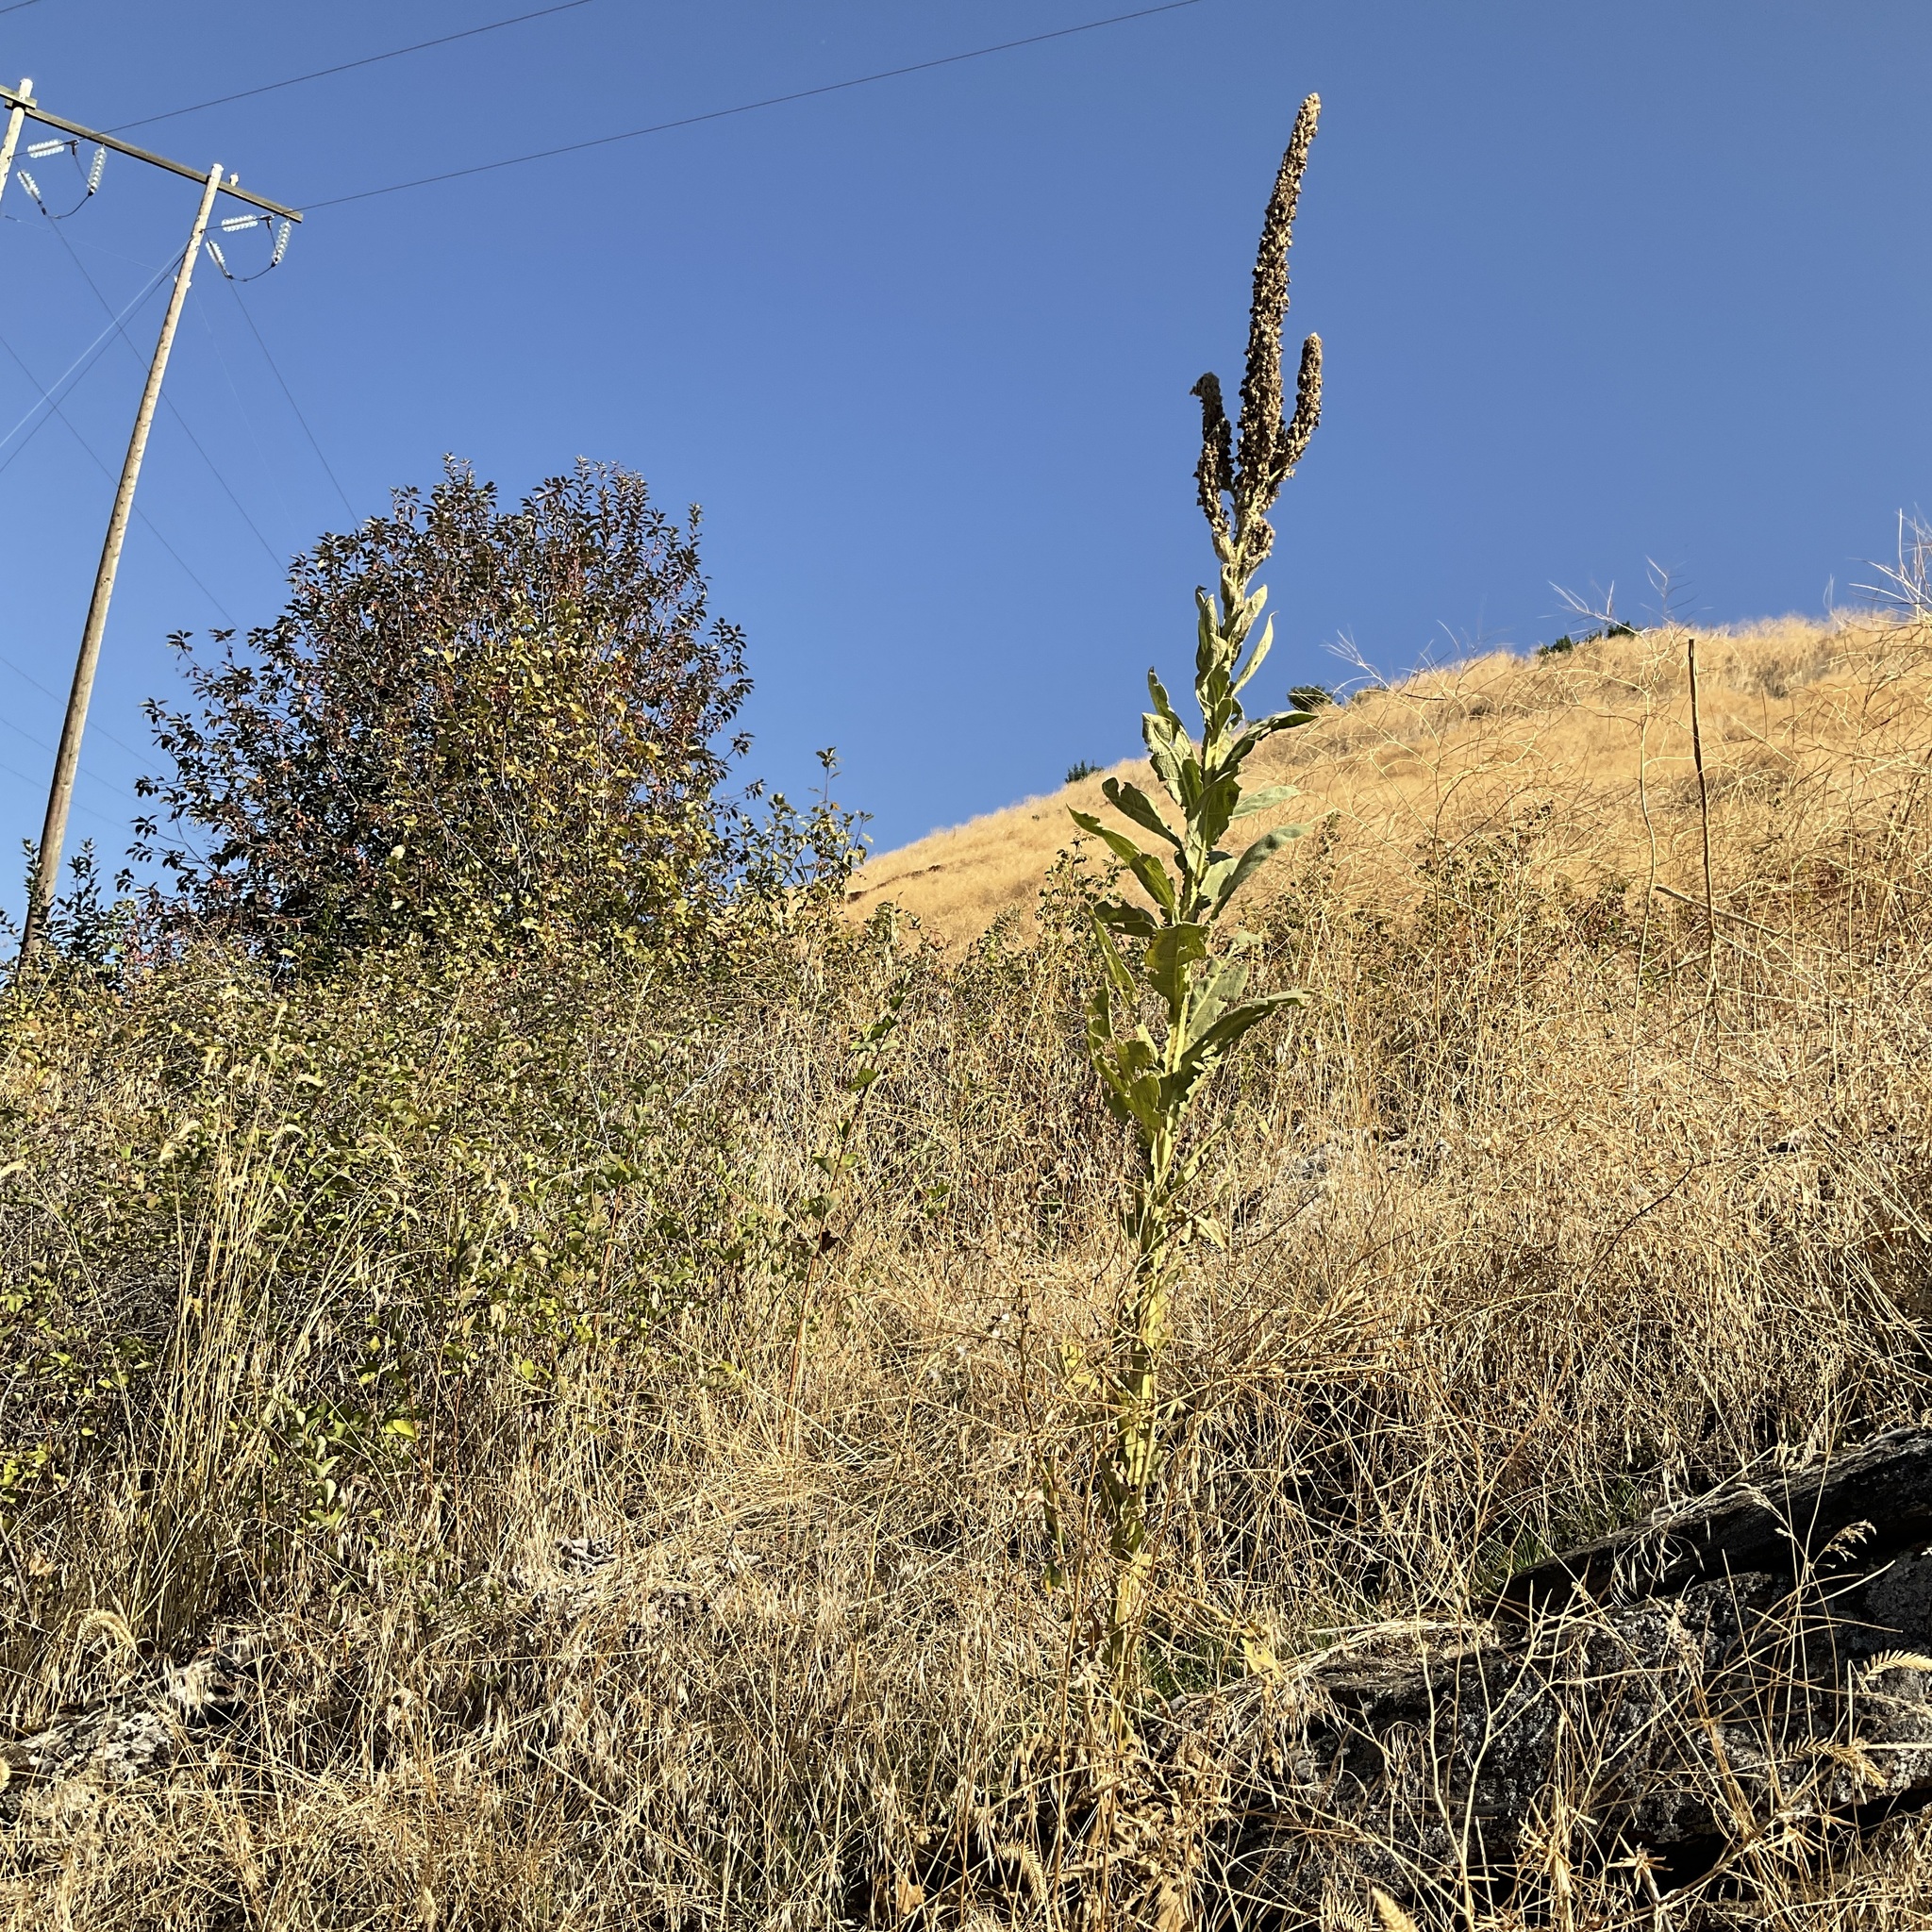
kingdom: Plantae
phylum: Tracheophyta
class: Magnoliopsida
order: Lamiales
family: Scrophulariaceae
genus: Verbascum
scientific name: Verbascum thapsus
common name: Common mullein
